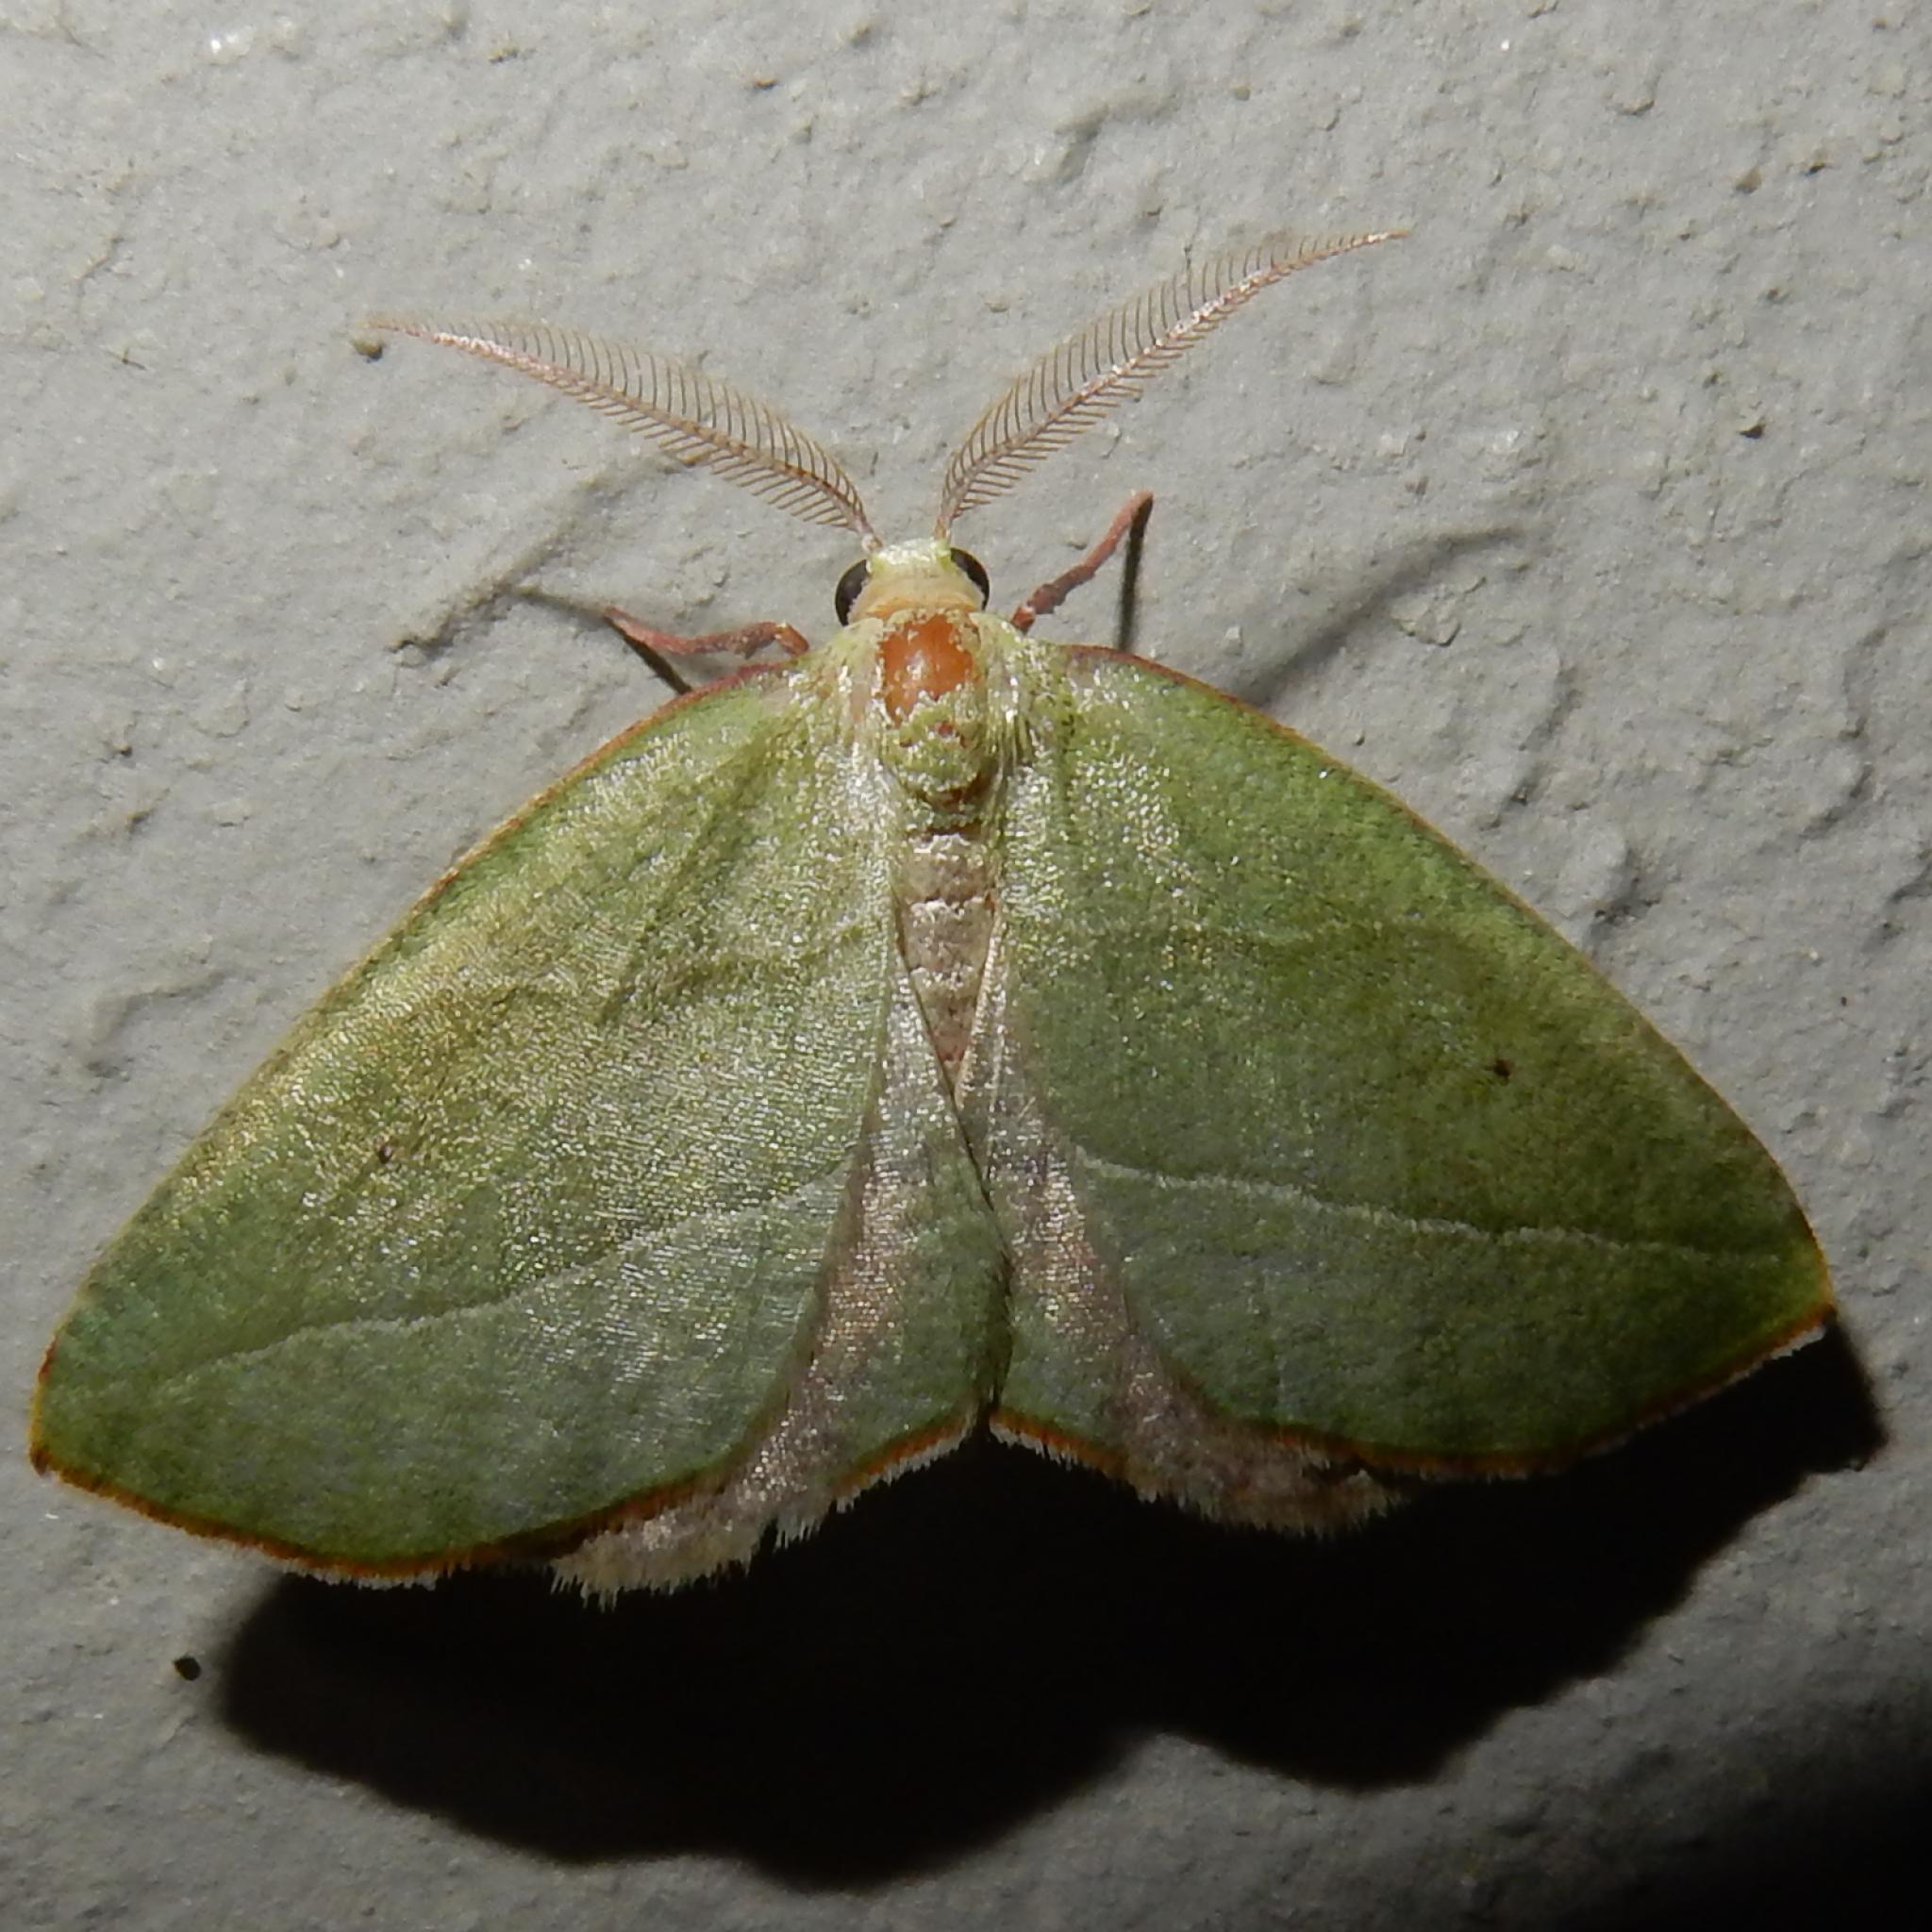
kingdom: Animalia
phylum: Arthropoda
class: Insecta
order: Lepidoptera
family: Geometridae
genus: Sicyodes
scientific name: Sicyodes olivescens
